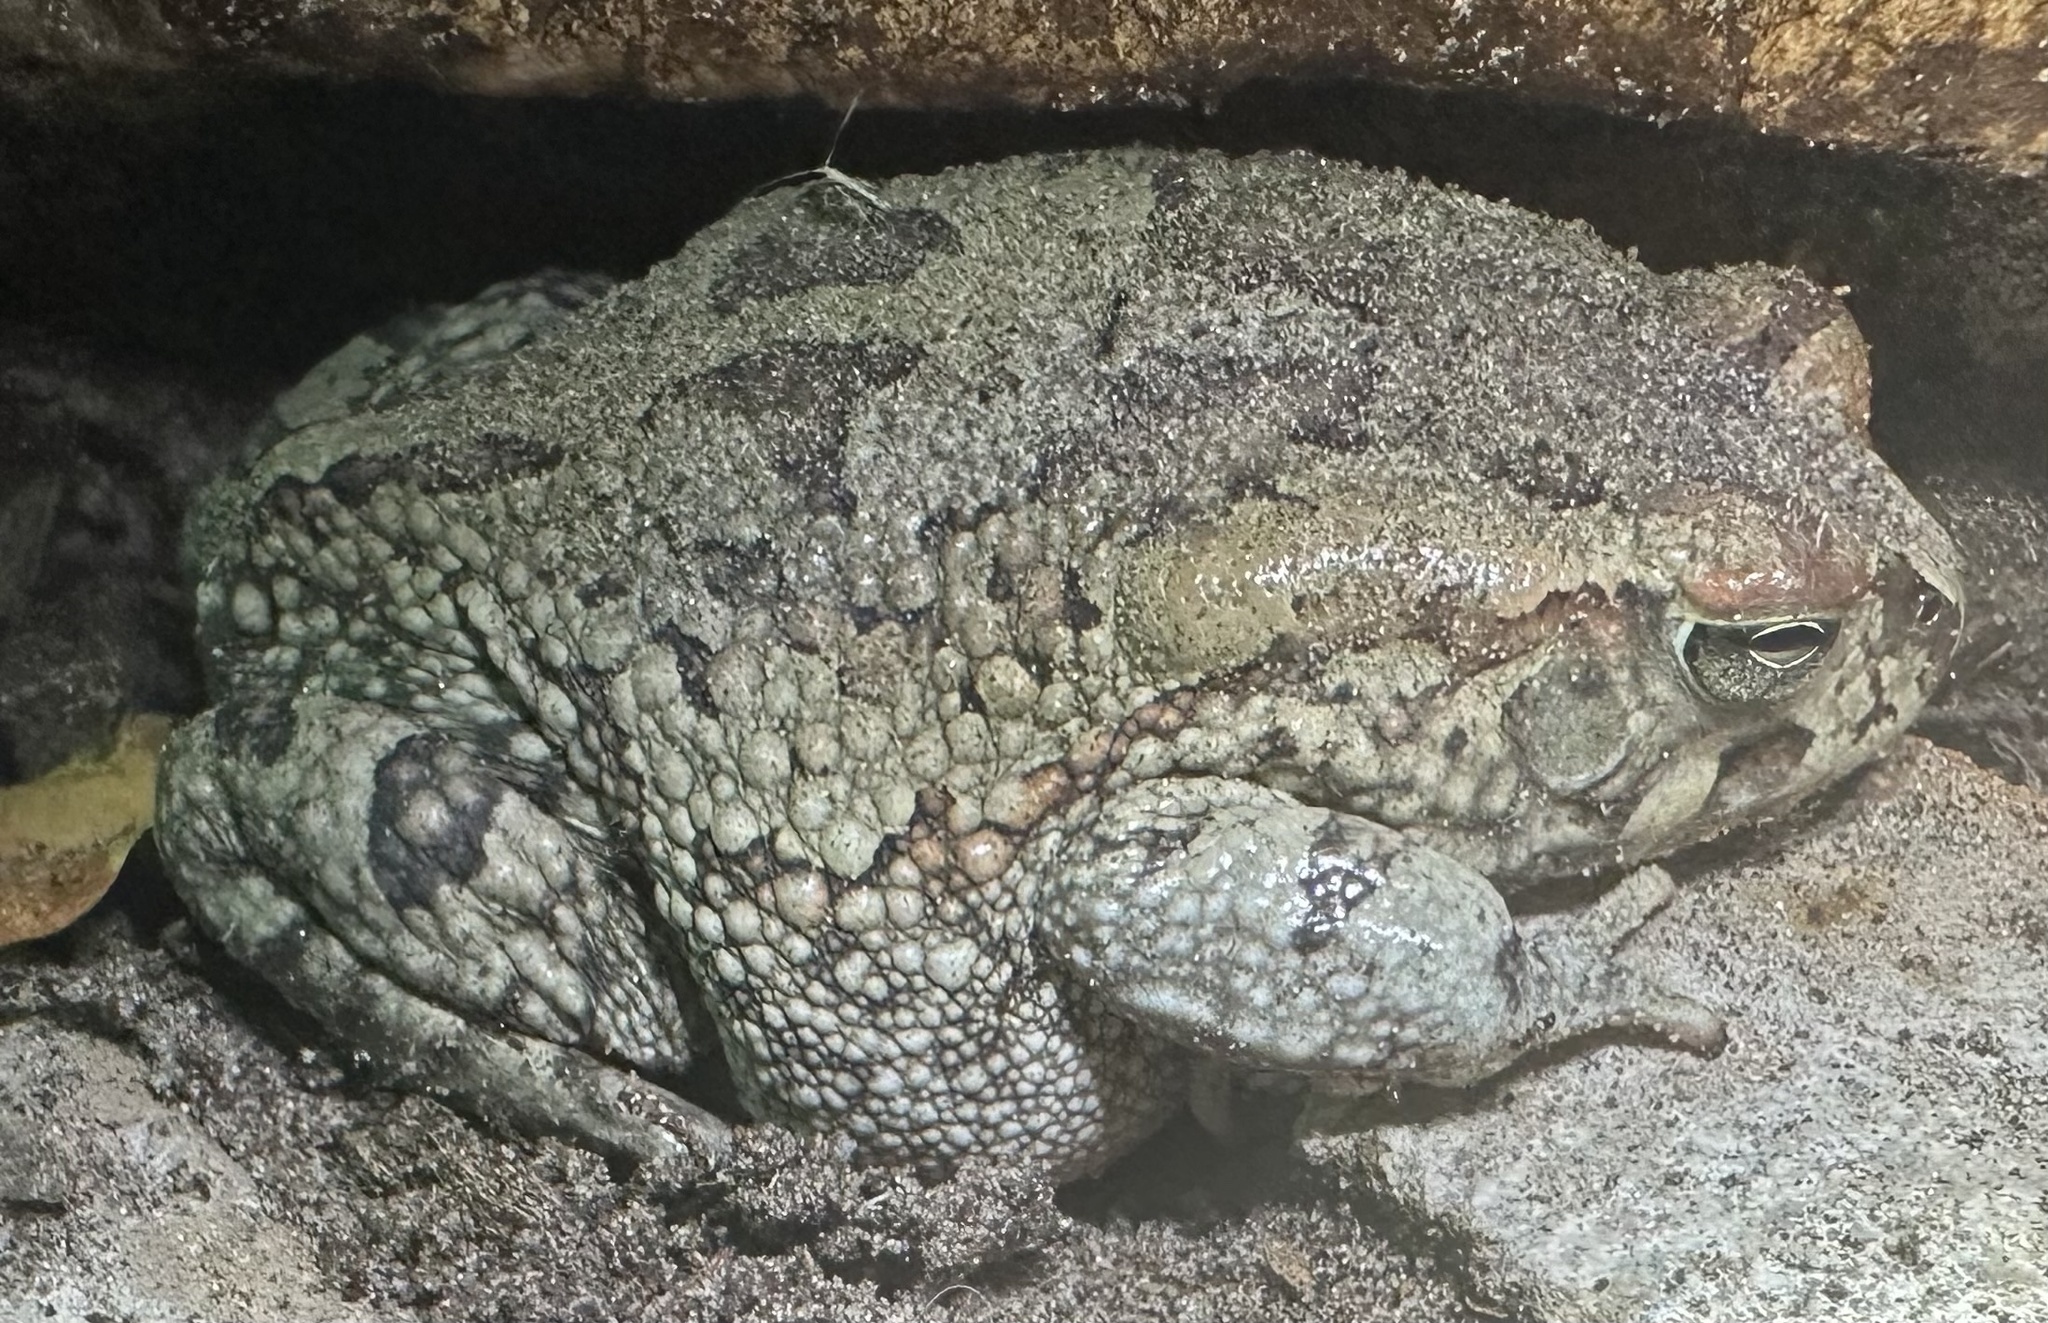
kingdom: Animalia
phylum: Chordata
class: Amphibia
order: Anura
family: Bufonidae
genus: Sclerophrys
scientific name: Sclerophrys poweri
